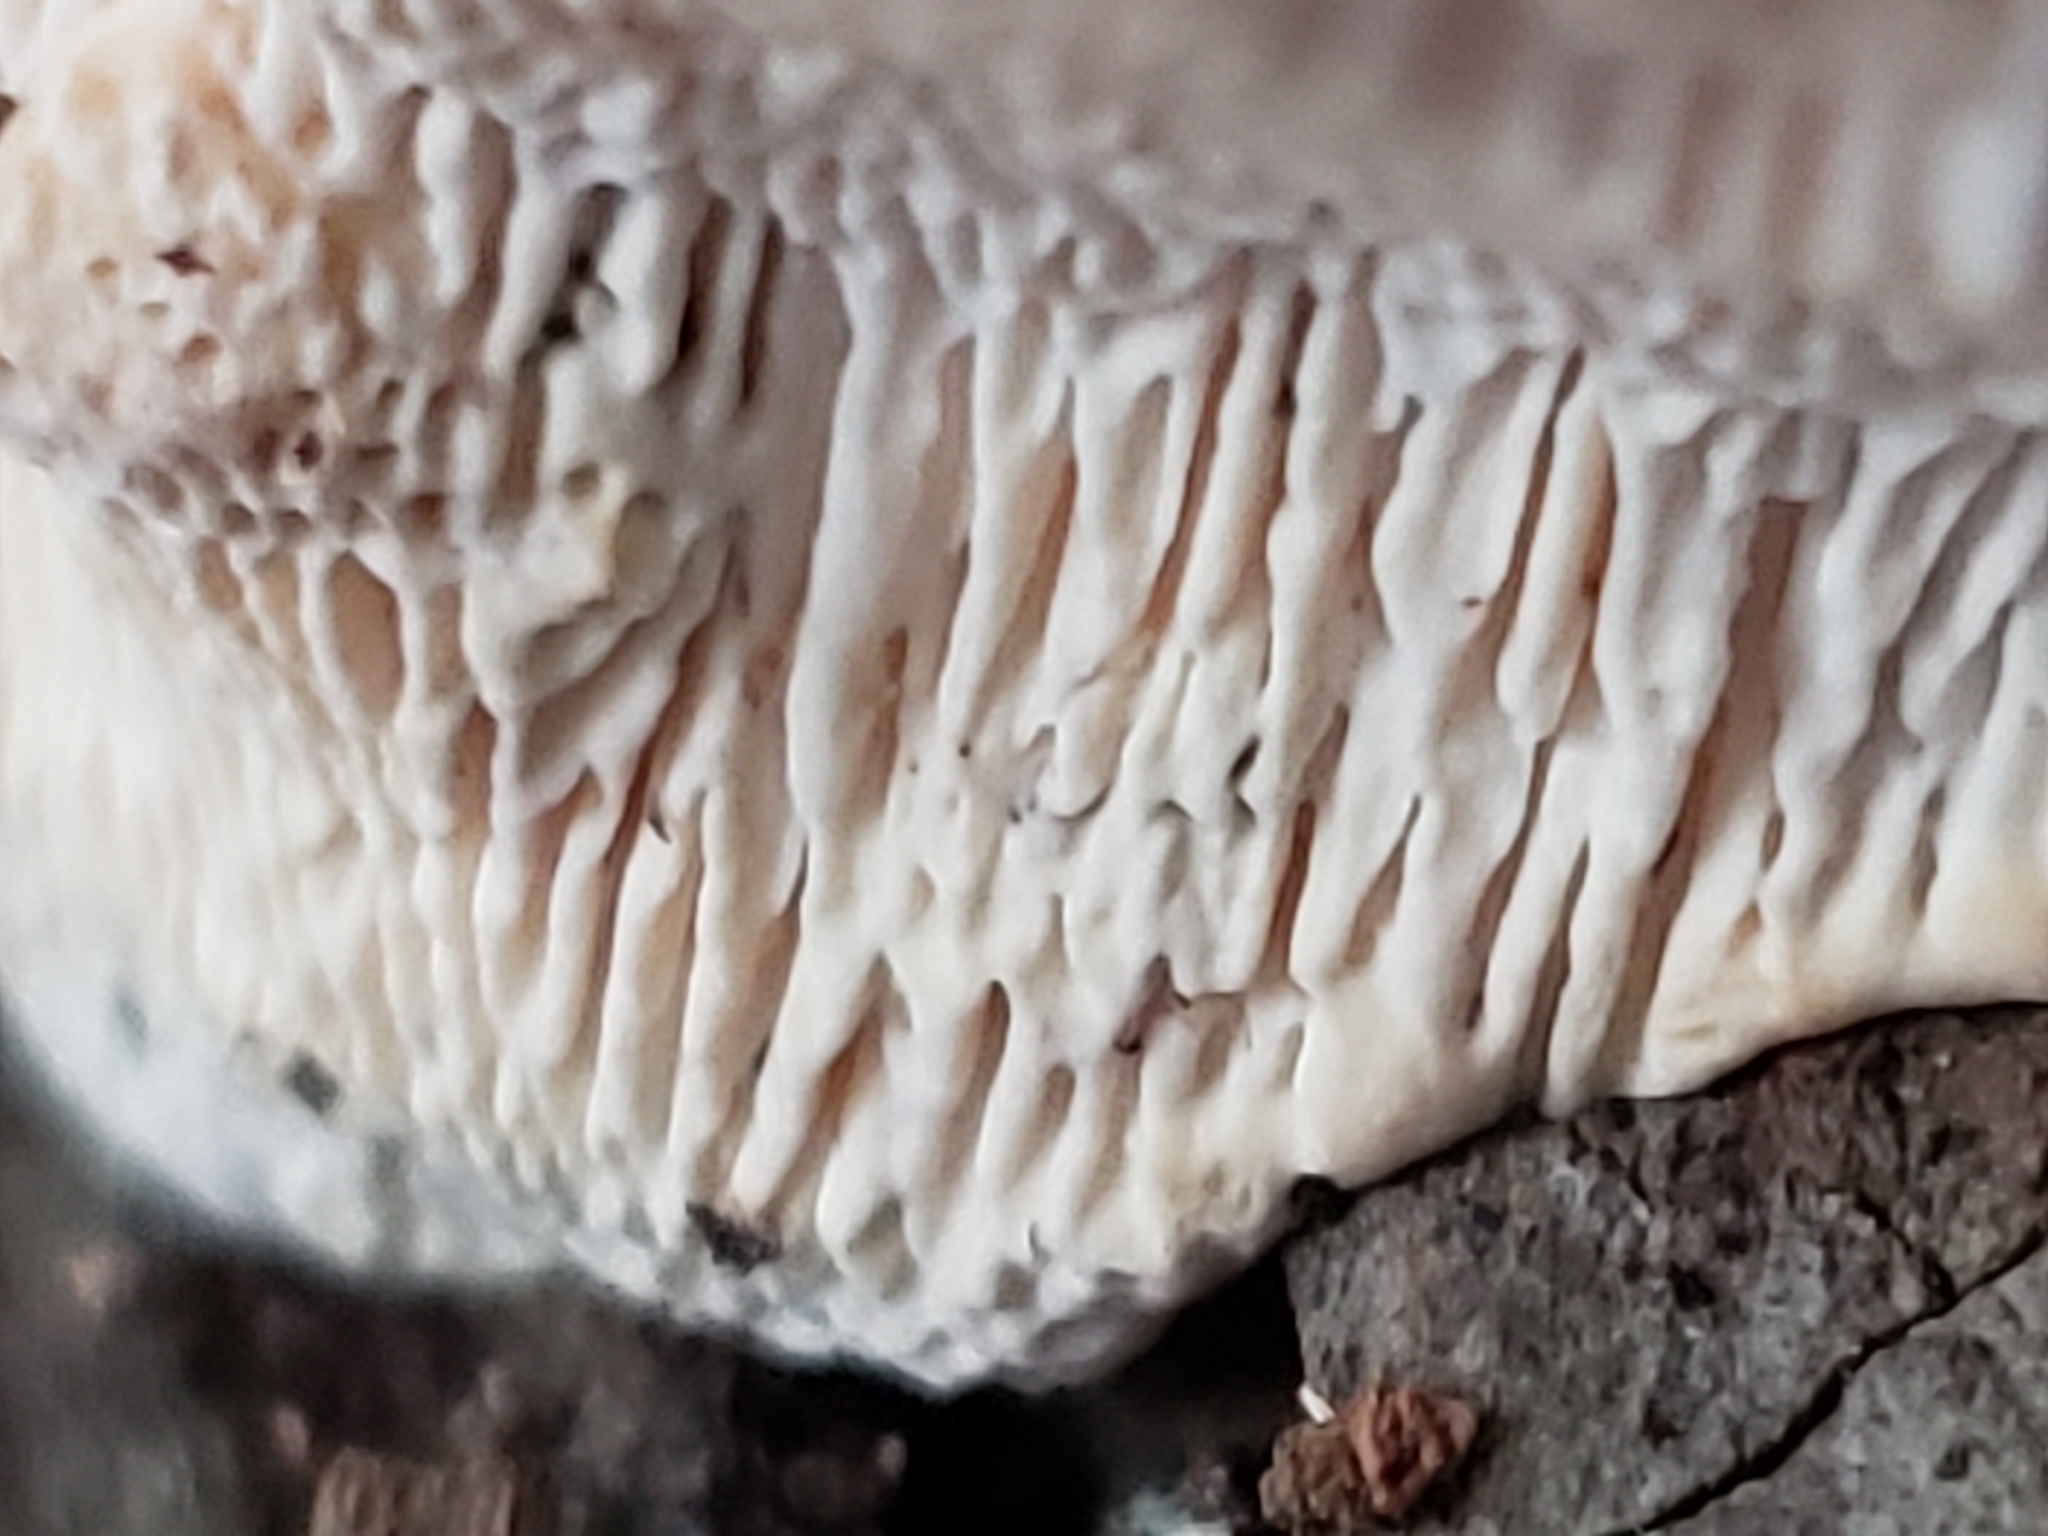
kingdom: Fungi
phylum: Basidiomycota
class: Agaricomycetes
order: Polyporales
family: Fomitopsidaceae
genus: Fomitopsis
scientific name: Fomitopsis
